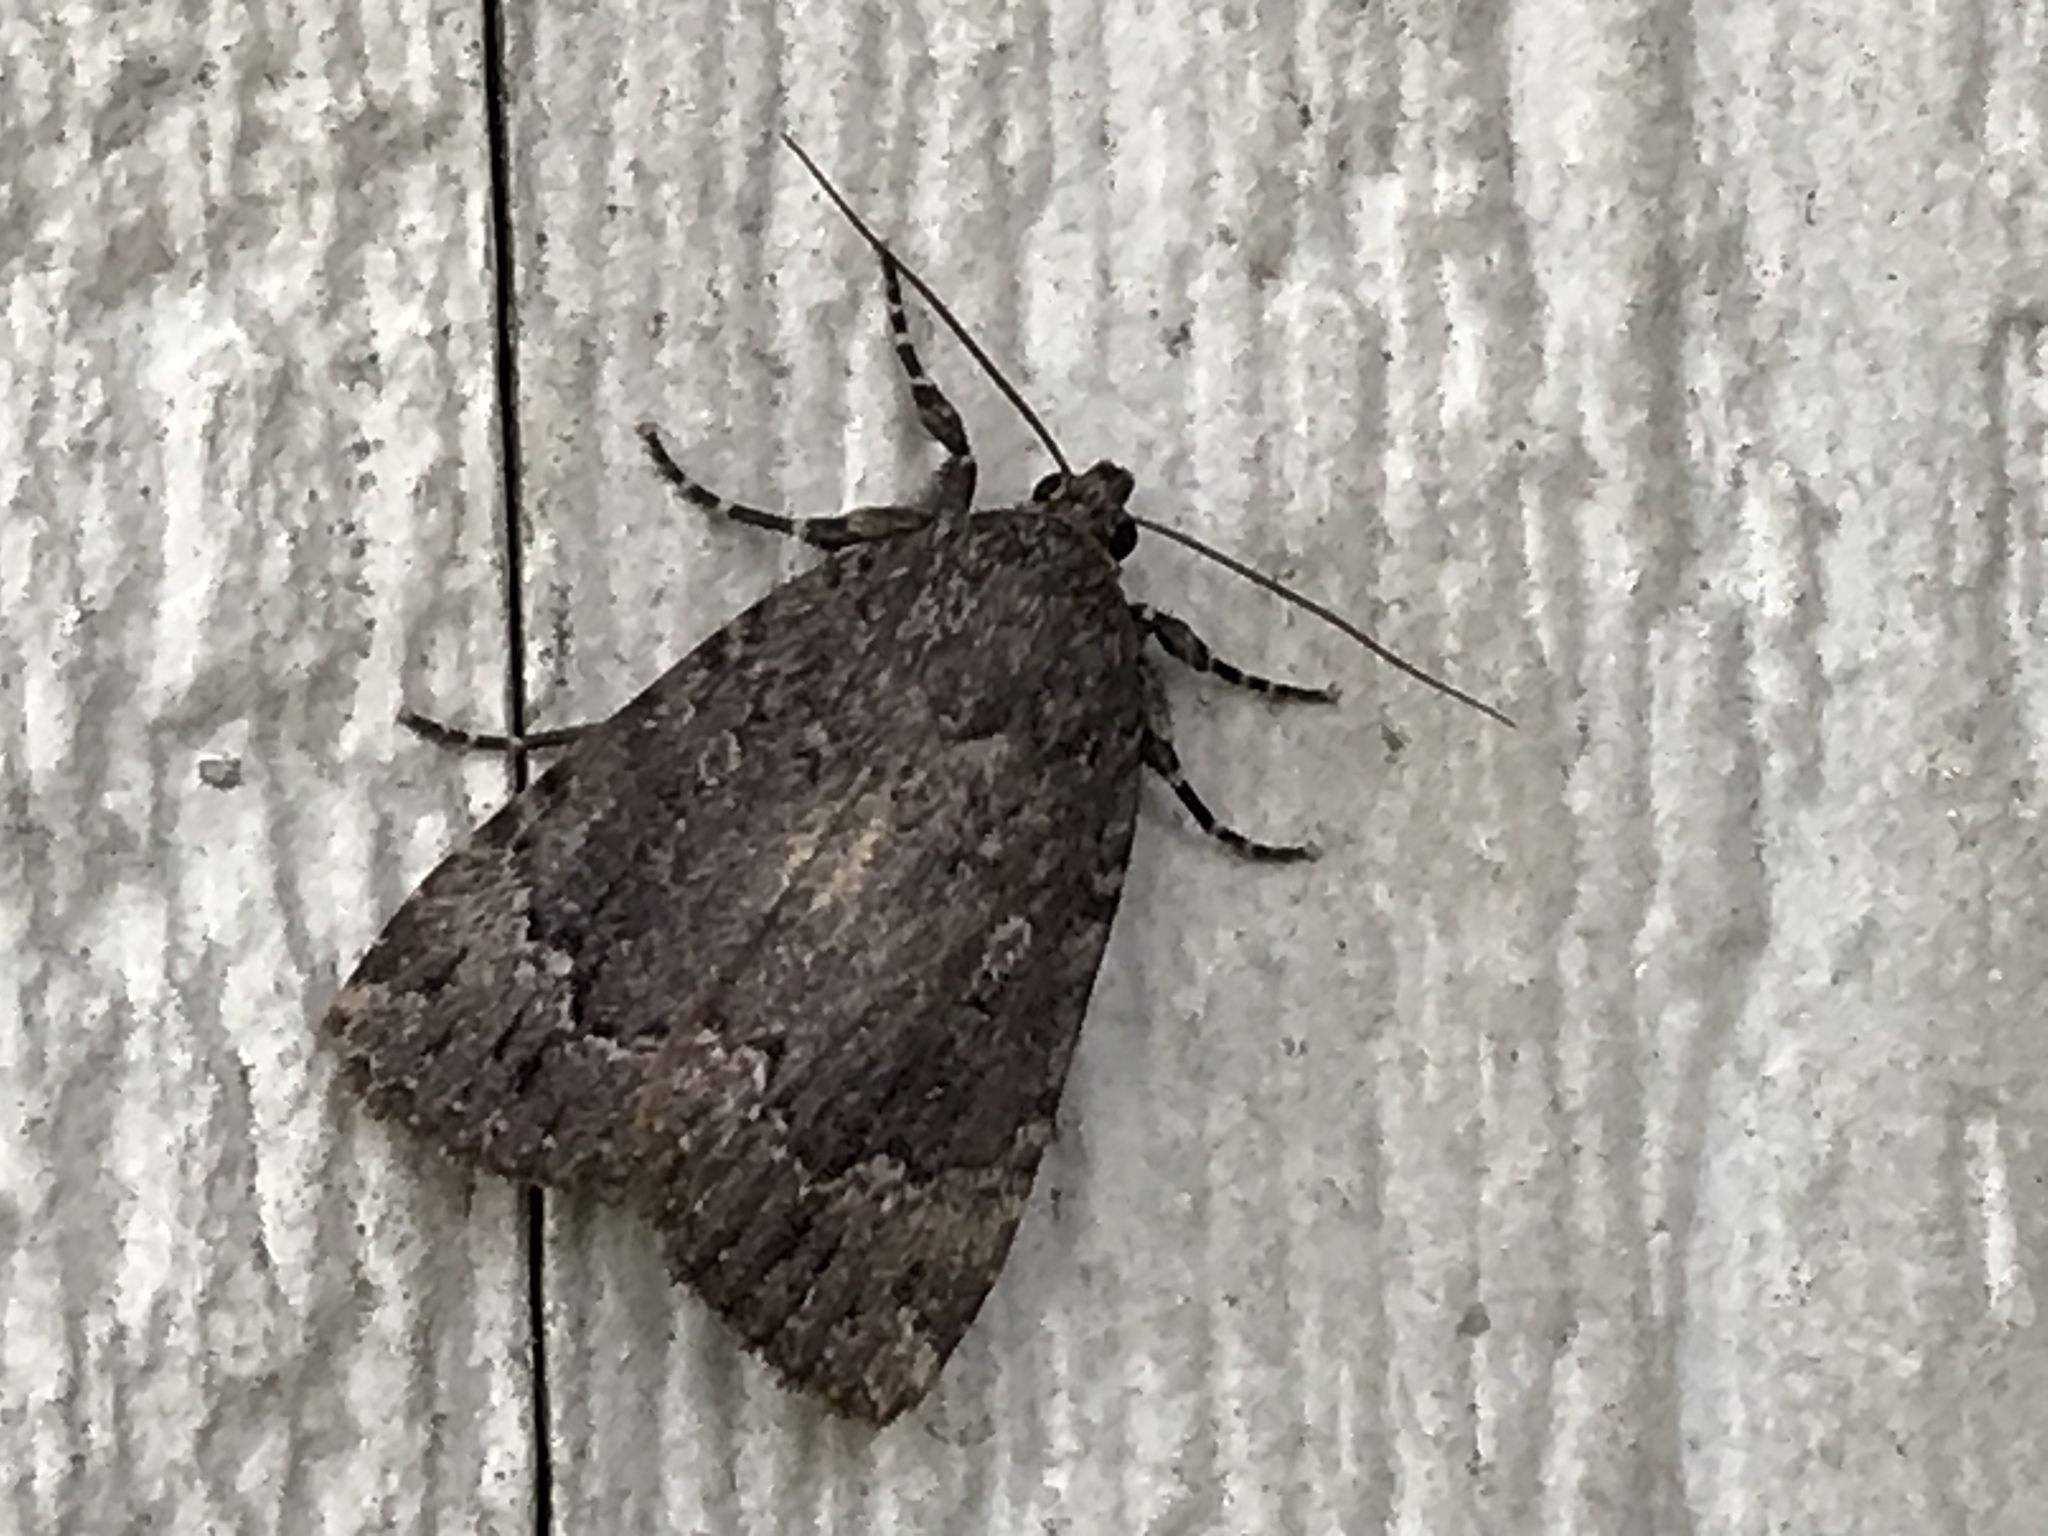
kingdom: Animalia
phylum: Arthropoda
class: Insecta
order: Lepidoptera
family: Noctuidae
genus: Amphipyra
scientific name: Amphipyra pyramidoides
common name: American copper underwing
